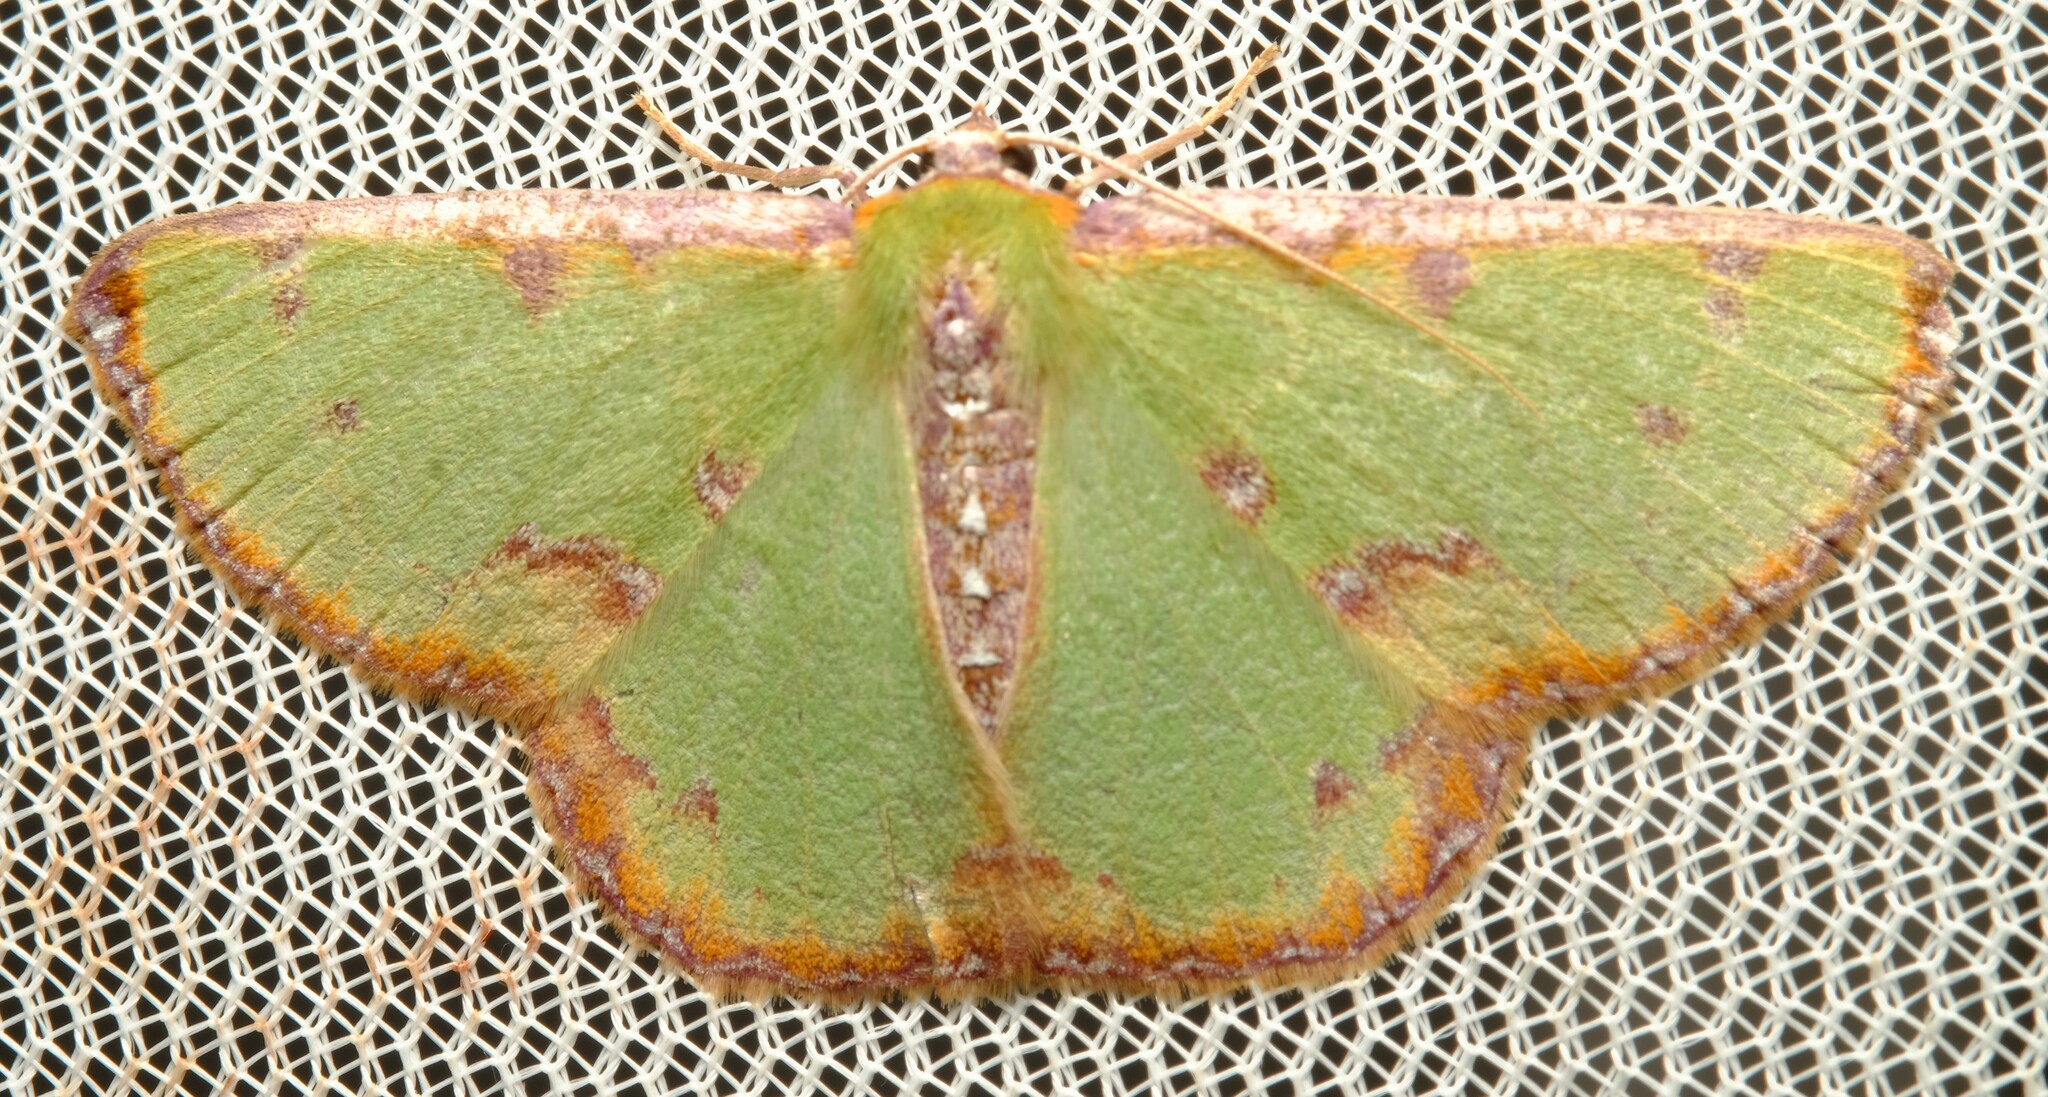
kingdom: Animalia
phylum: Arthropoda
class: Insecta
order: Lepidoptera
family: Geometridae
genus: Eucyclodes
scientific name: Eucyclodes buprestaria
